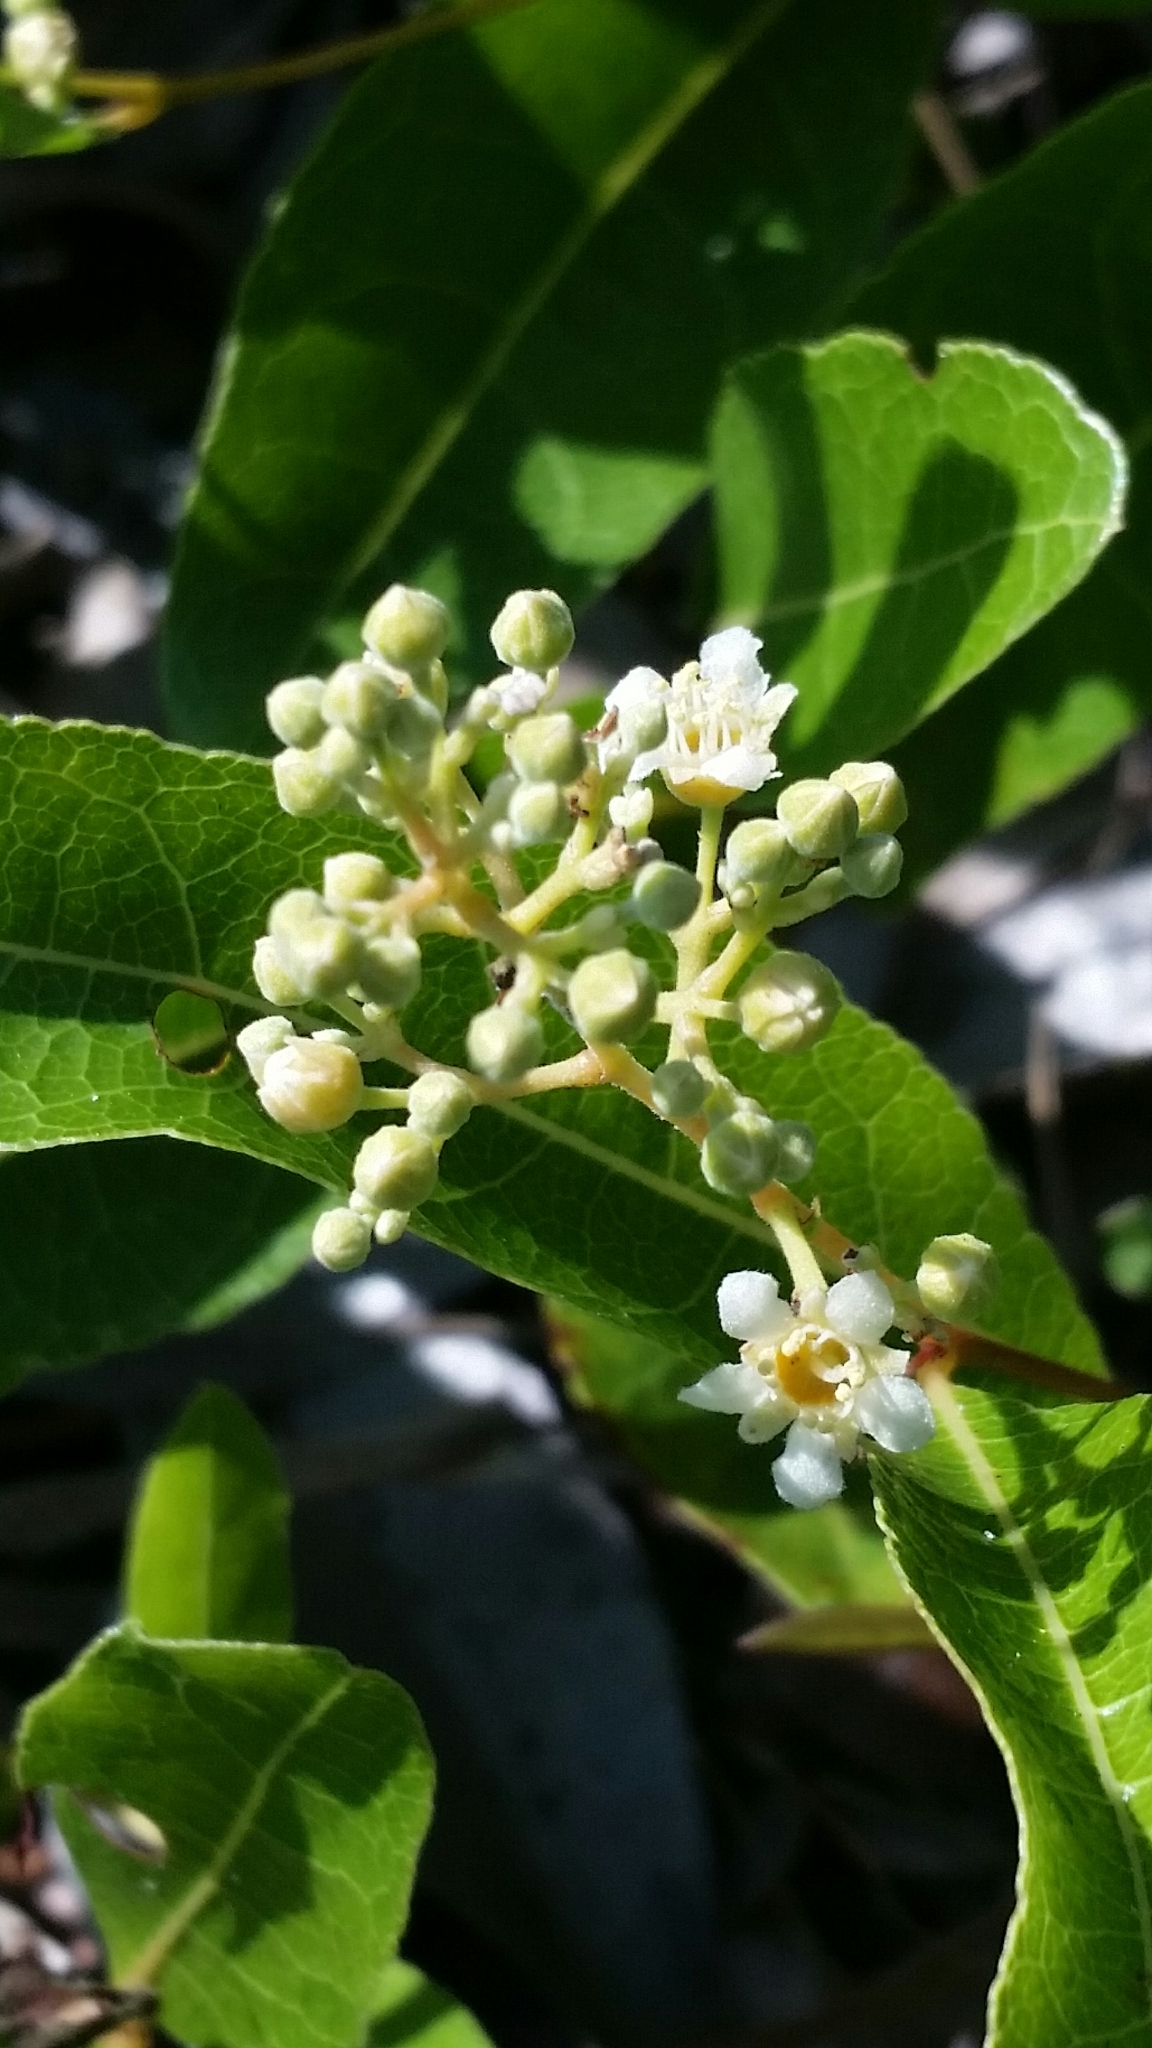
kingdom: Plantae
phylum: Tracheophyta
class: Magnoliopsida
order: Malpighiales
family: Chrysobalanaceae
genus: Geobalanus
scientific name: Geobalanus oblongifolius
